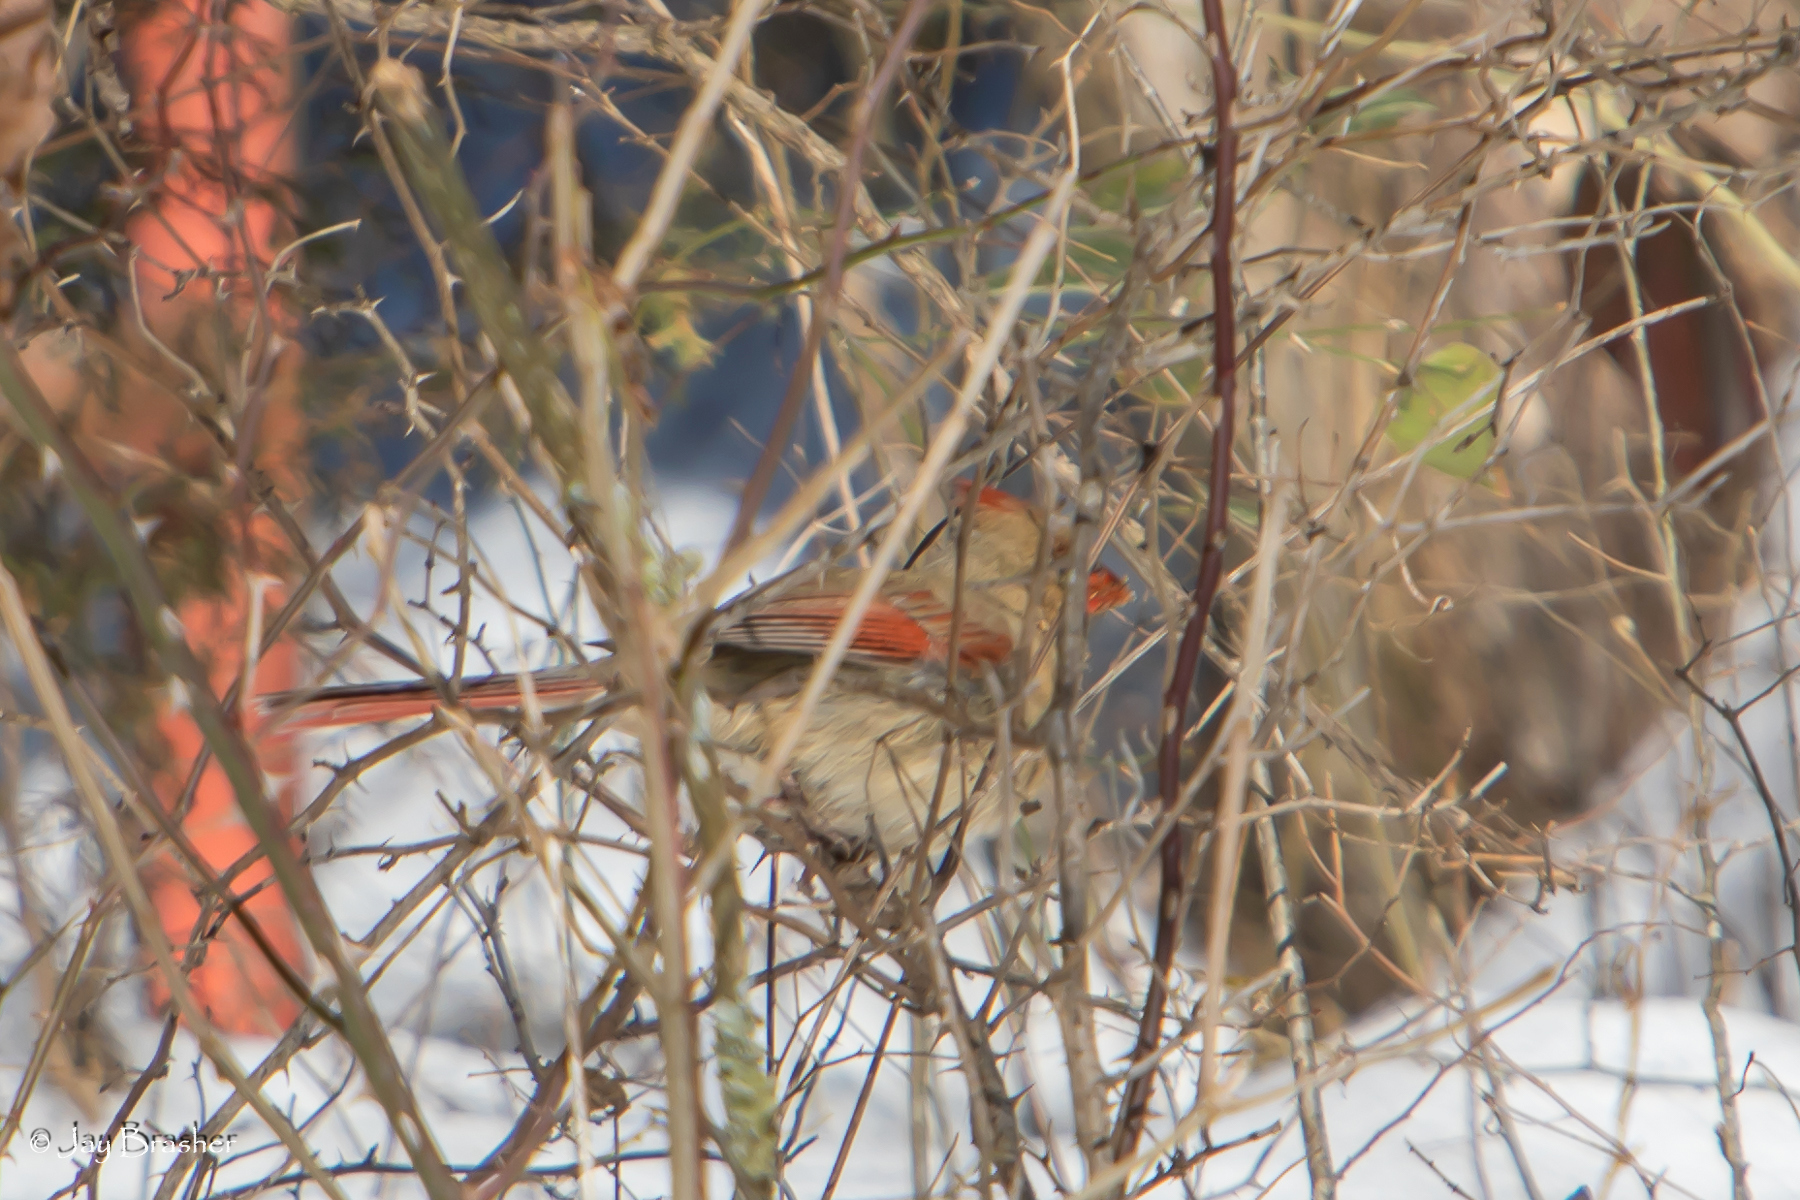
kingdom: Animalia
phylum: Chordata
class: Aves
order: Passeriformes
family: Cardinalidae
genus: Cardinalis
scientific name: Cardinalis cardinalis
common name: Northern cardinal
